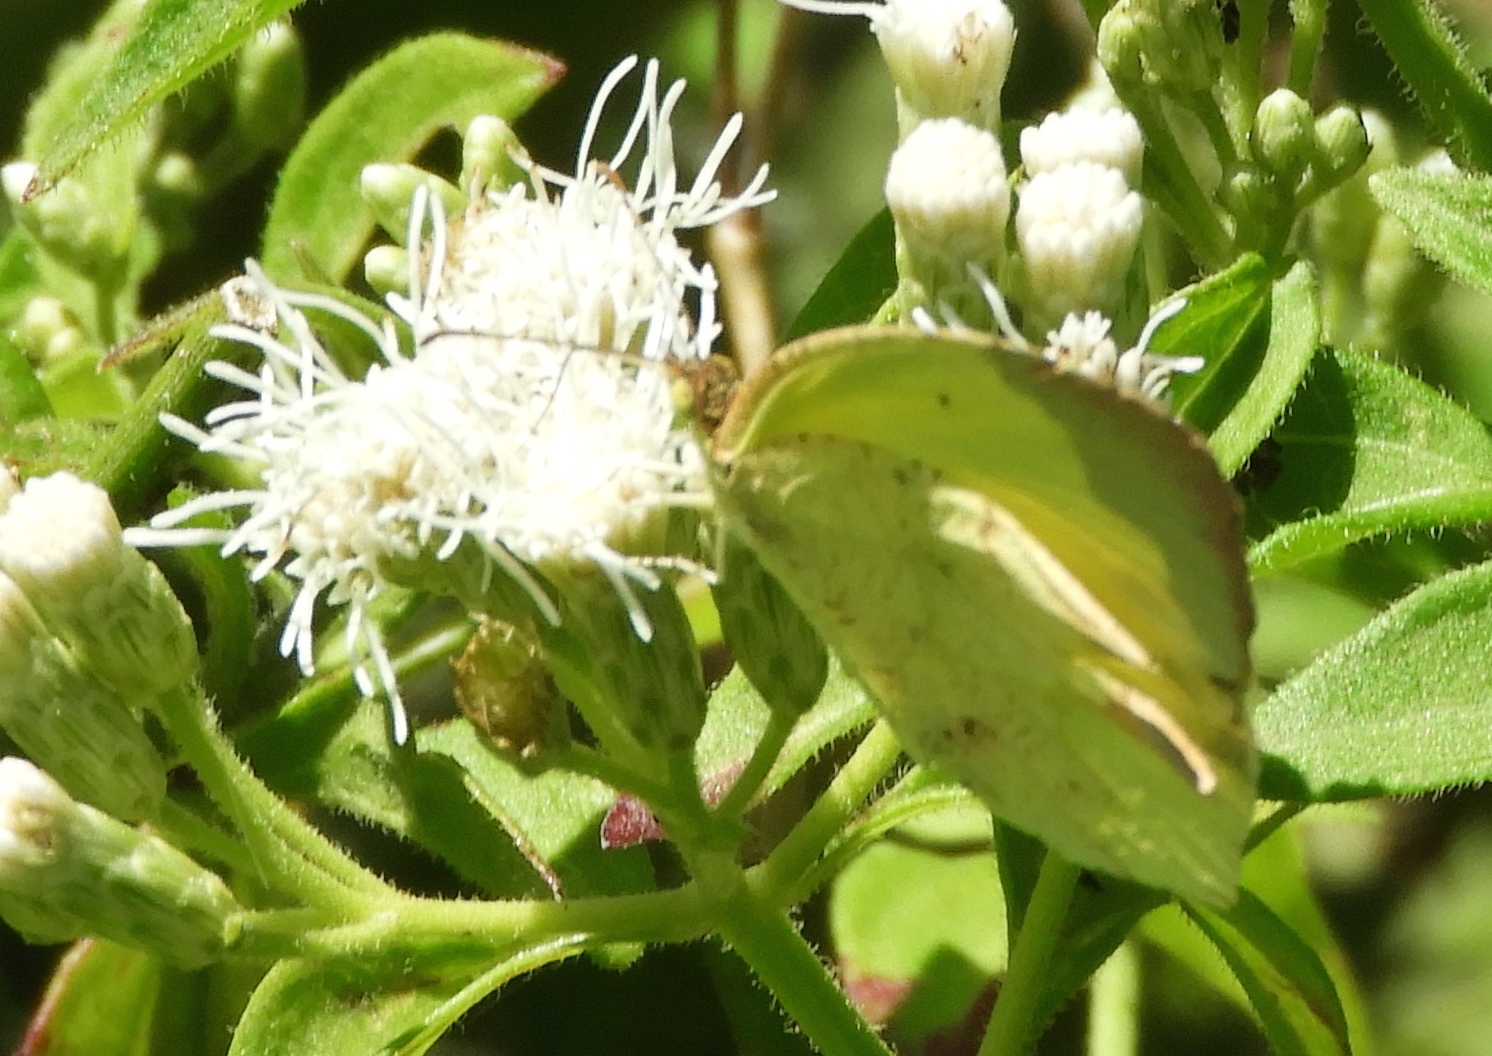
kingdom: Animalia
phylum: Arthropoda
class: Insecta
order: Lepidoptera
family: Pieridae
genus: Abaeis
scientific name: Abaeis boisduvaliana
